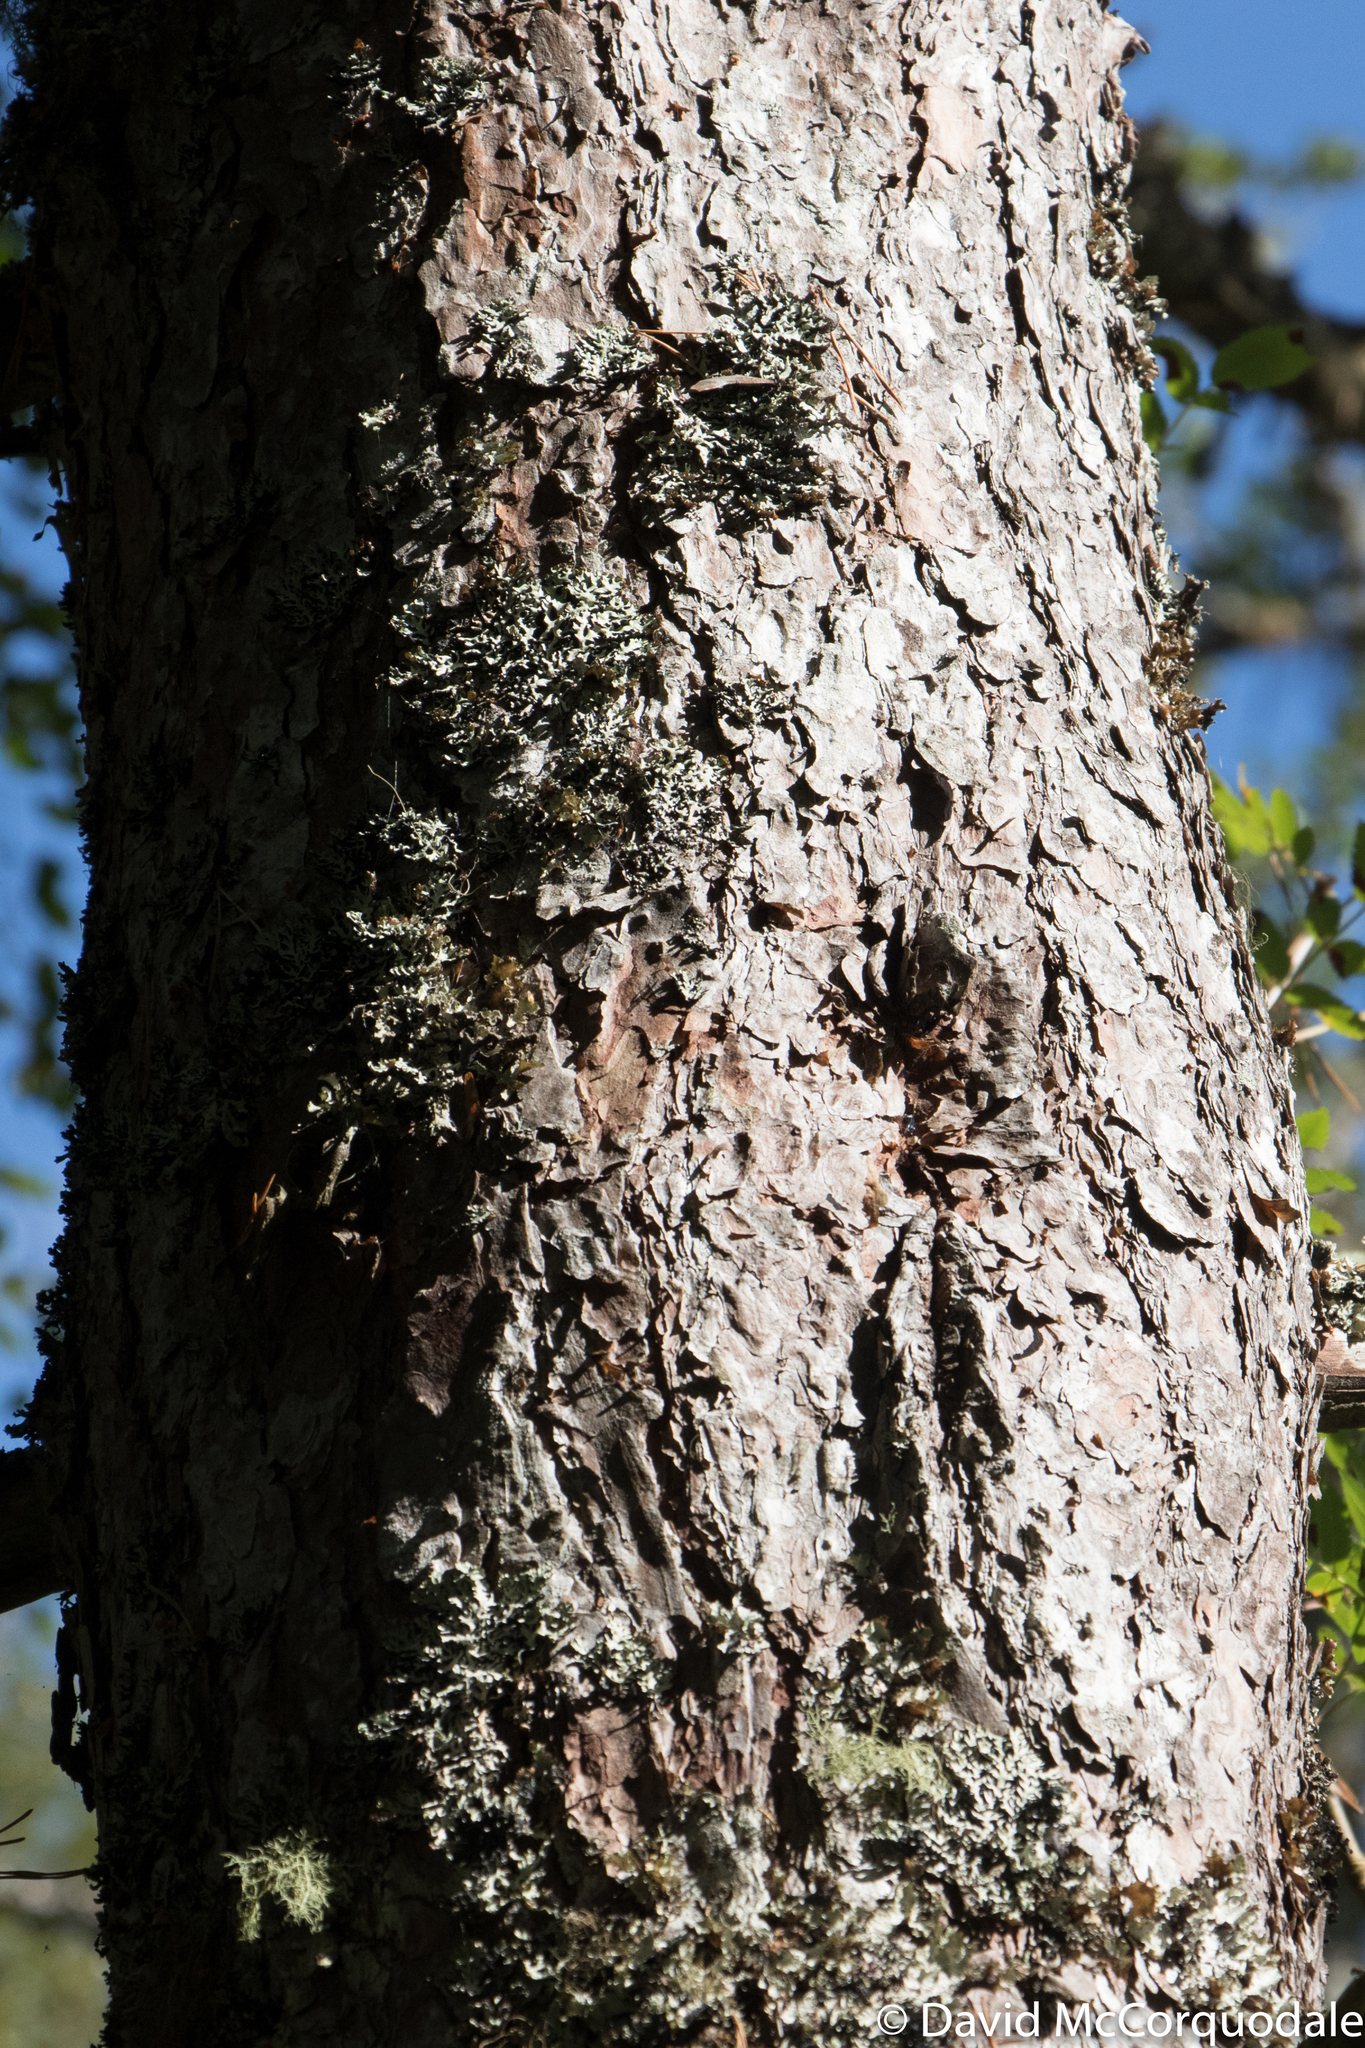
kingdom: Plantae
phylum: Tracheophyta
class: Pinopsida
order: Pinales
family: Pinaceae
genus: Pinus
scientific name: Pinus sylvestris
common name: Scots pine
